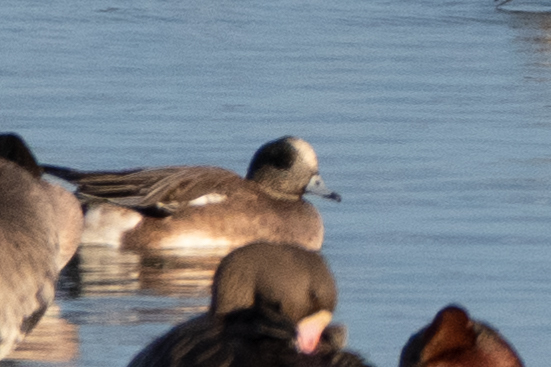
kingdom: Animalia
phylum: Chordata
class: Aves
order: Anseriformes
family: Anatidae
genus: Mareca
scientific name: Mareca americana
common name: American wigeon
